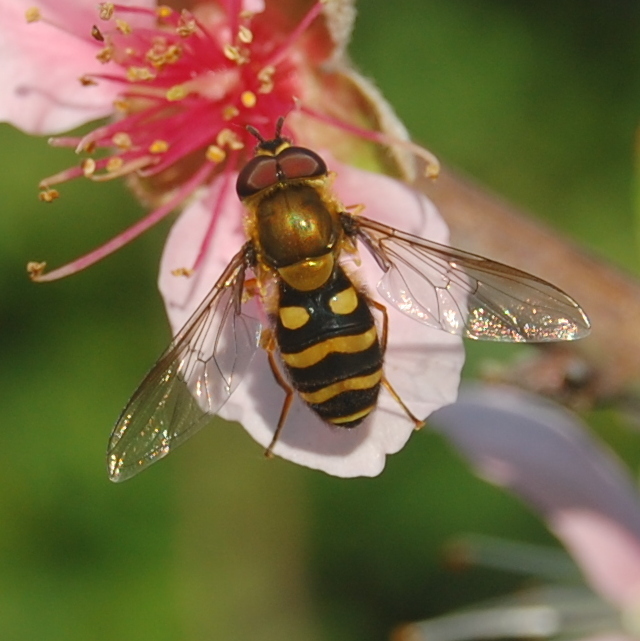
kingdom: Animalia
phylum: Arthropoda
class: Insecta
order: Diptera
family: Syrphidae
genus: Syrphus
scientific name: Syrphus phaeostigma
